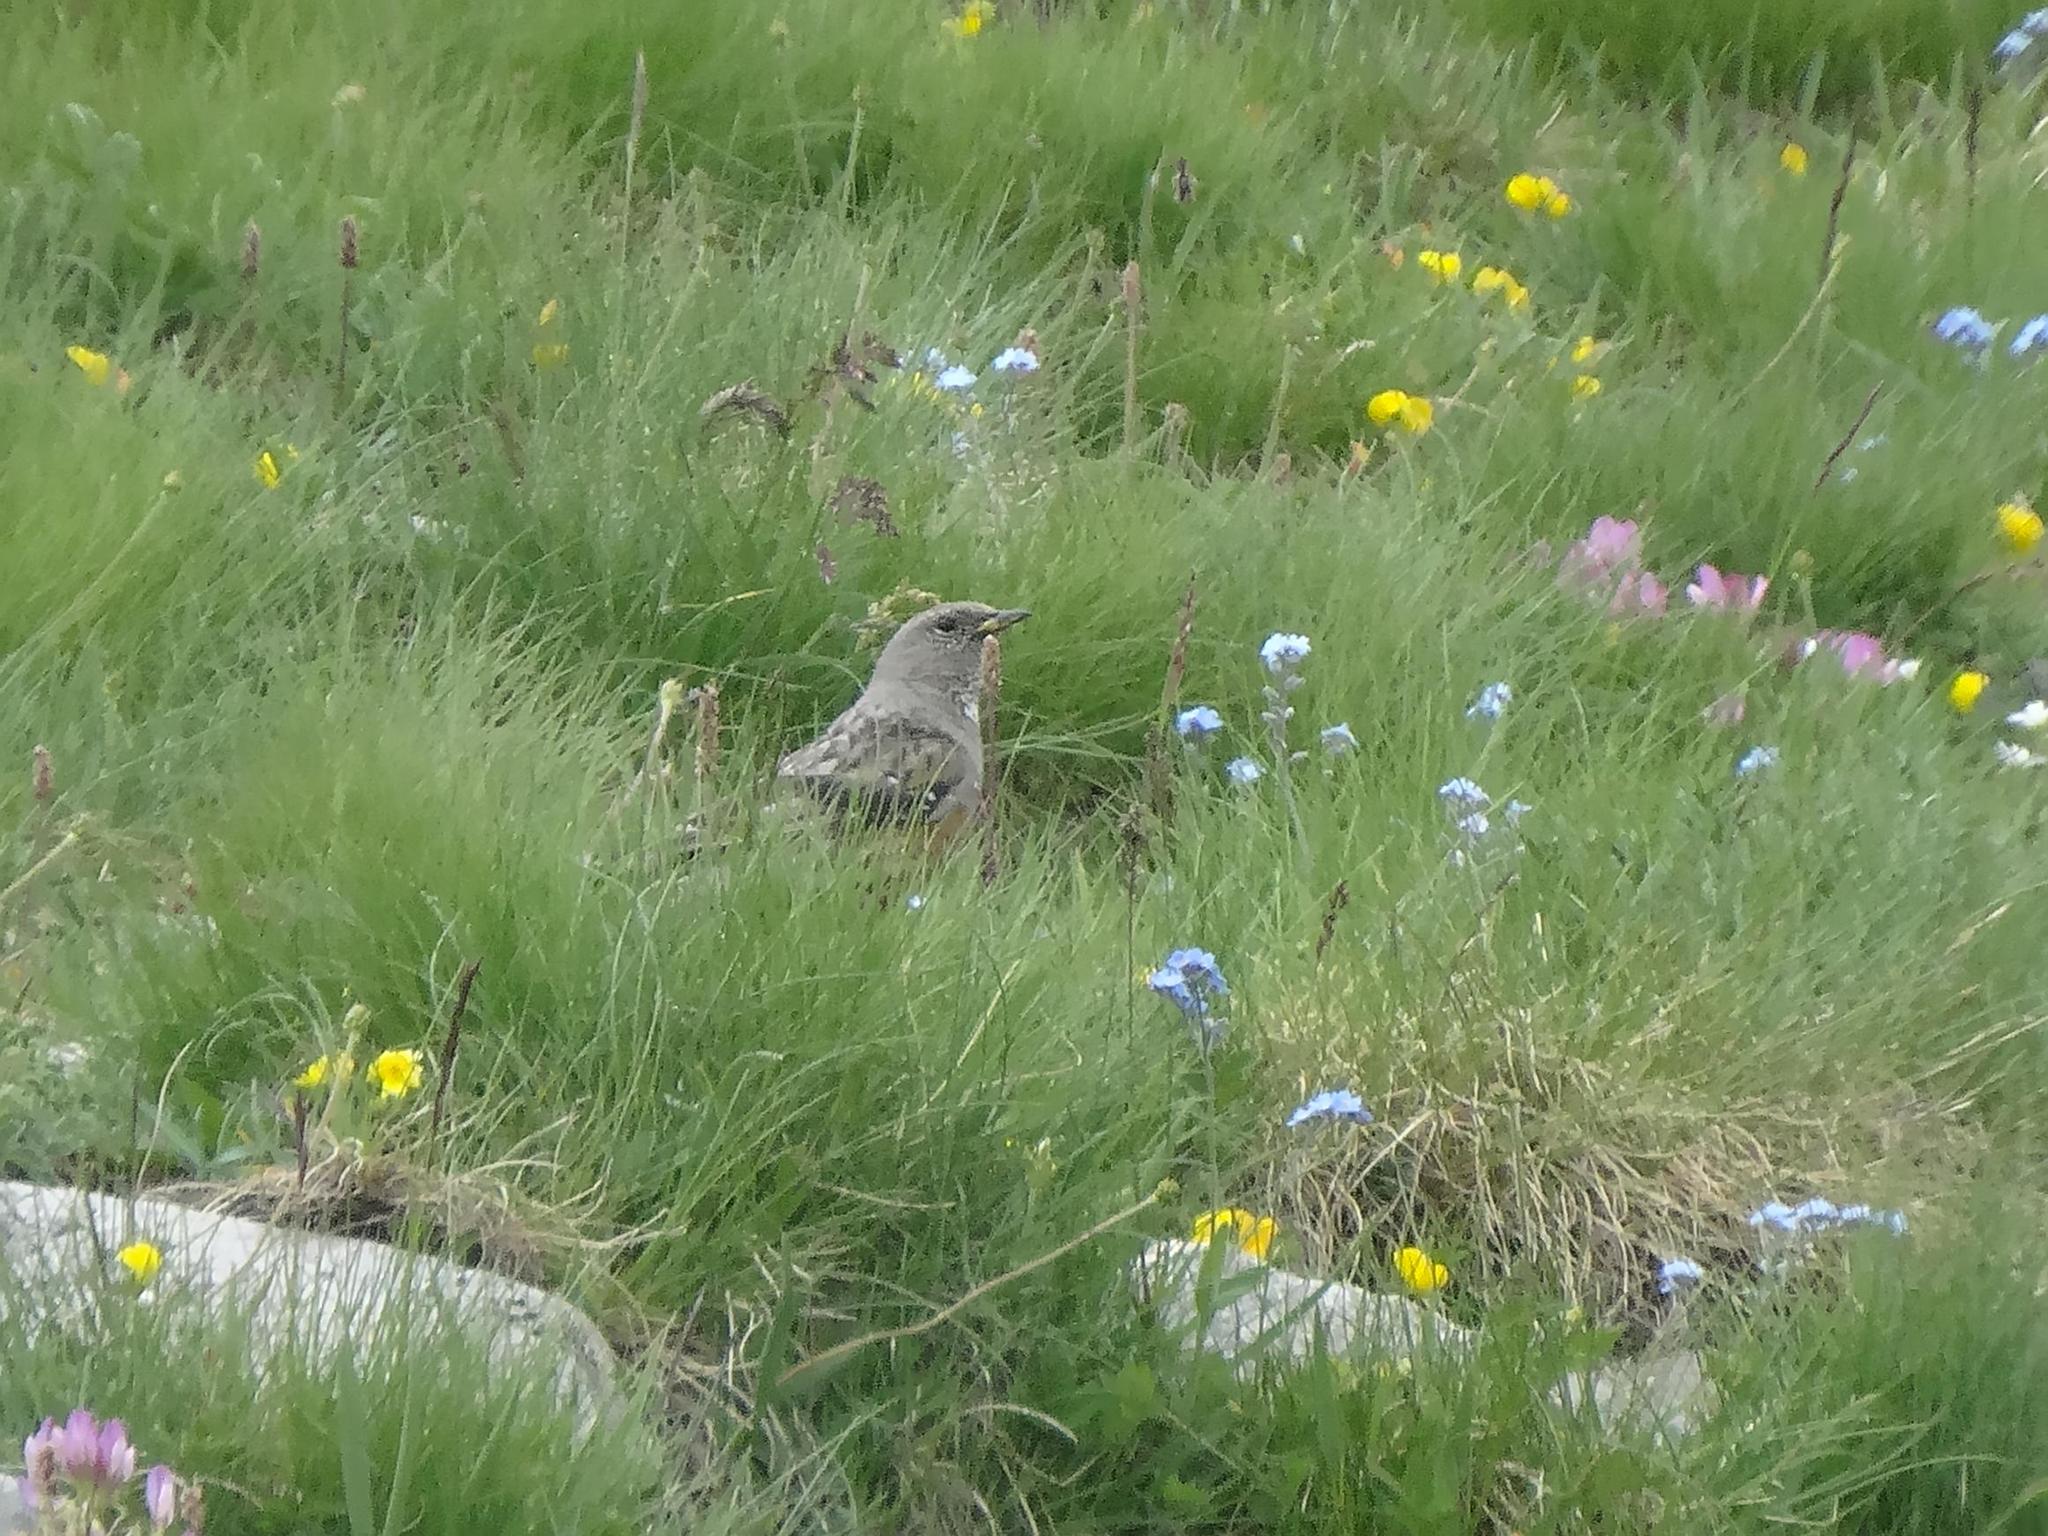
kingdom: Animalia
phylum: Chordata
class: Aves
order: Passeriformes
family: Prunellidae
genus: Prunella
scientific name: Prunella collaris
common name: Alpine accentor
